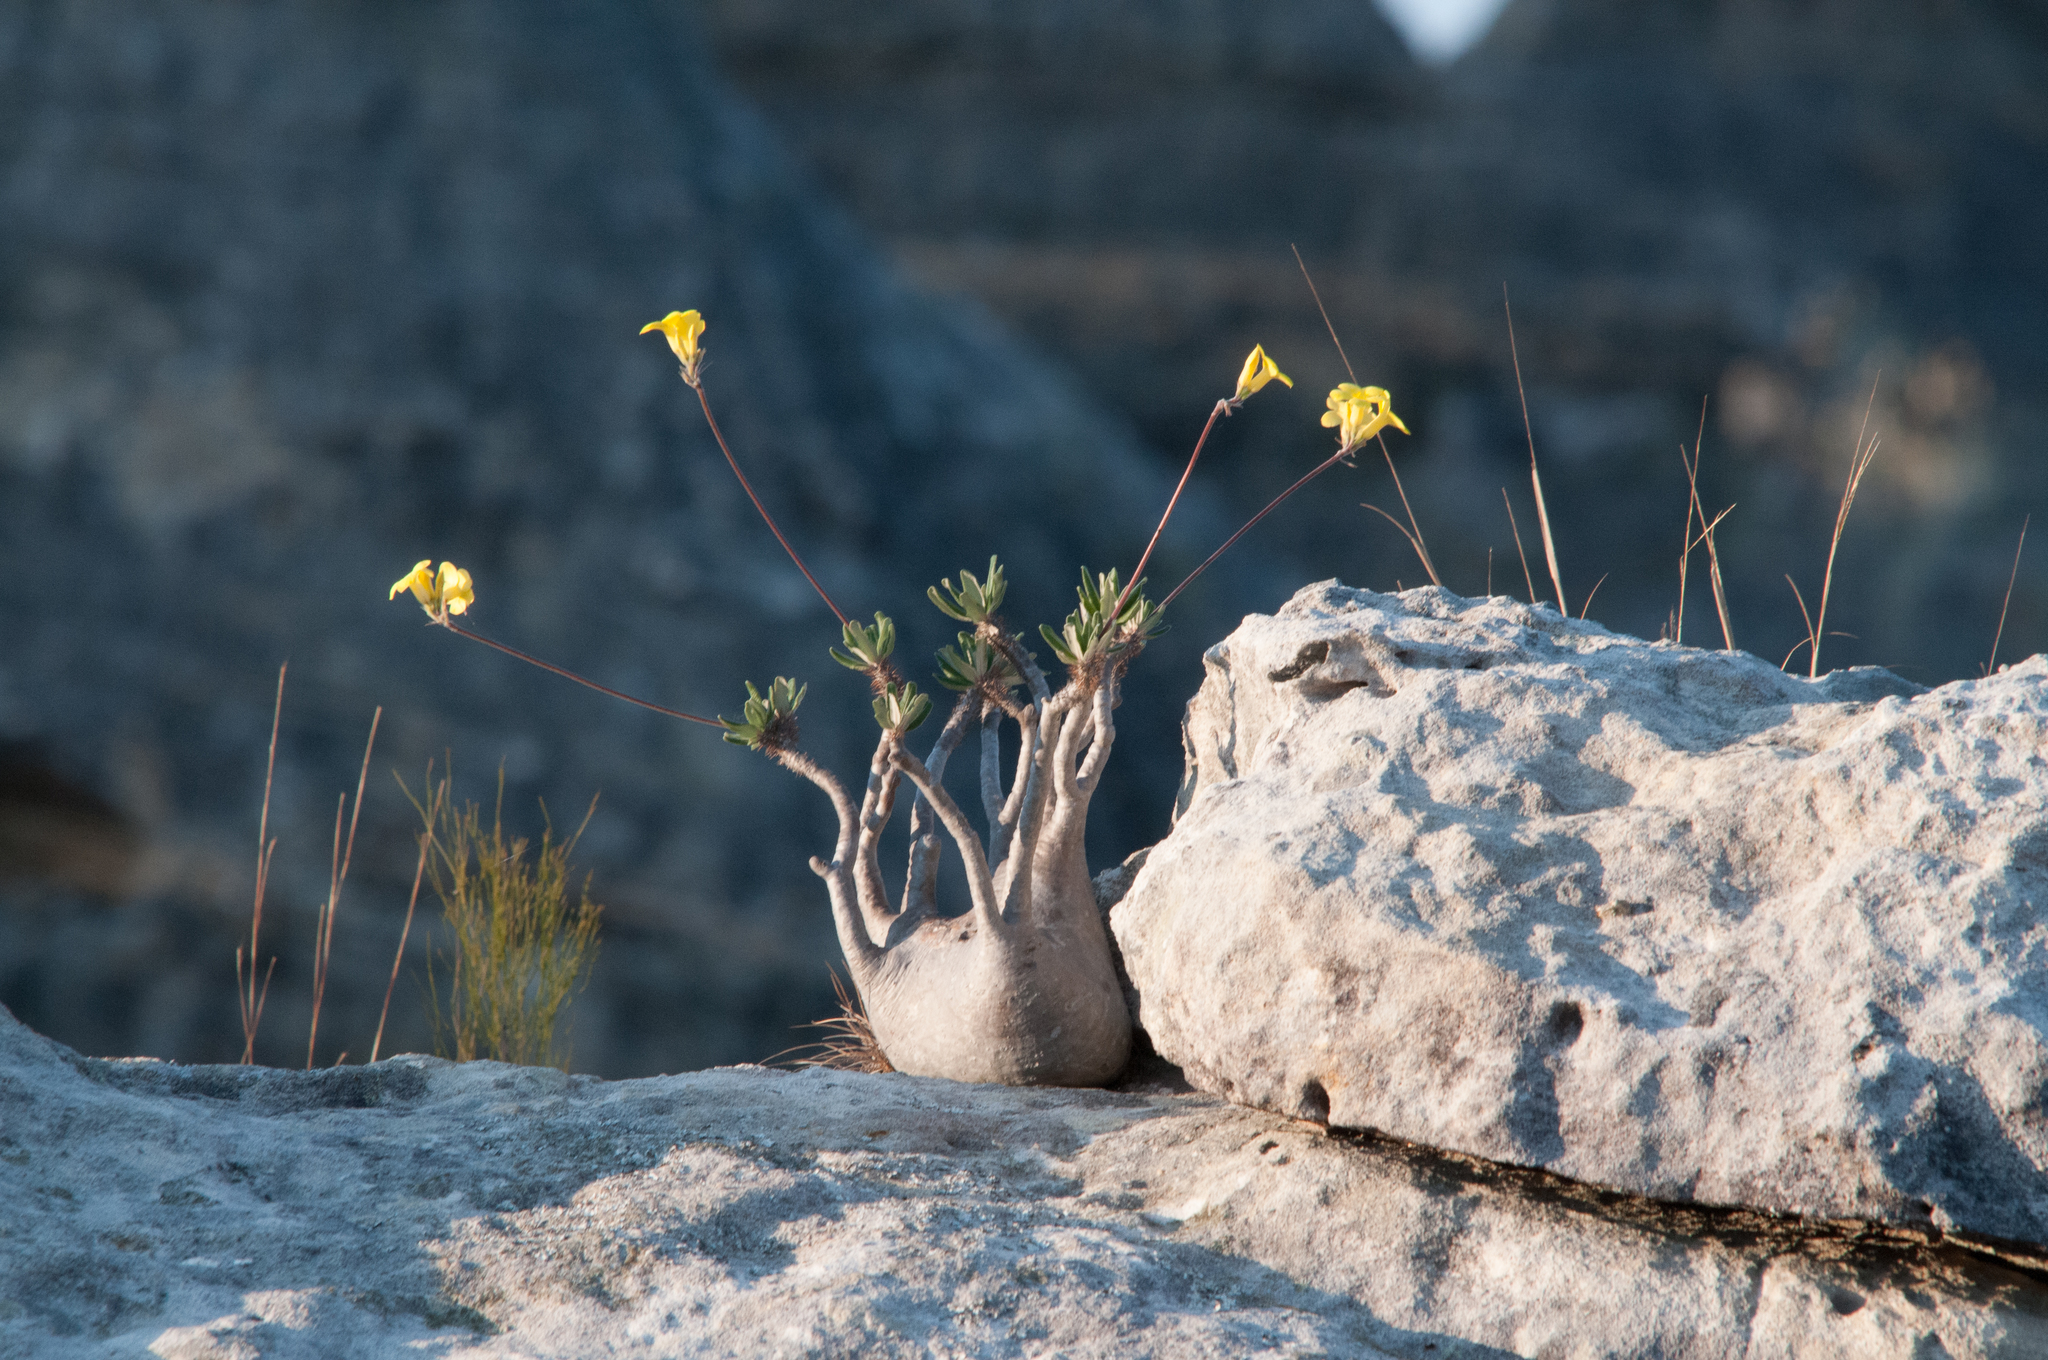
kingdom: Plantae
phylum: Tracheophyta
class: Magnoliopsida
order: Gentianales
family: Apocynaceae
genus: Pachypodium
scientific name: Pachypodium gracilius
